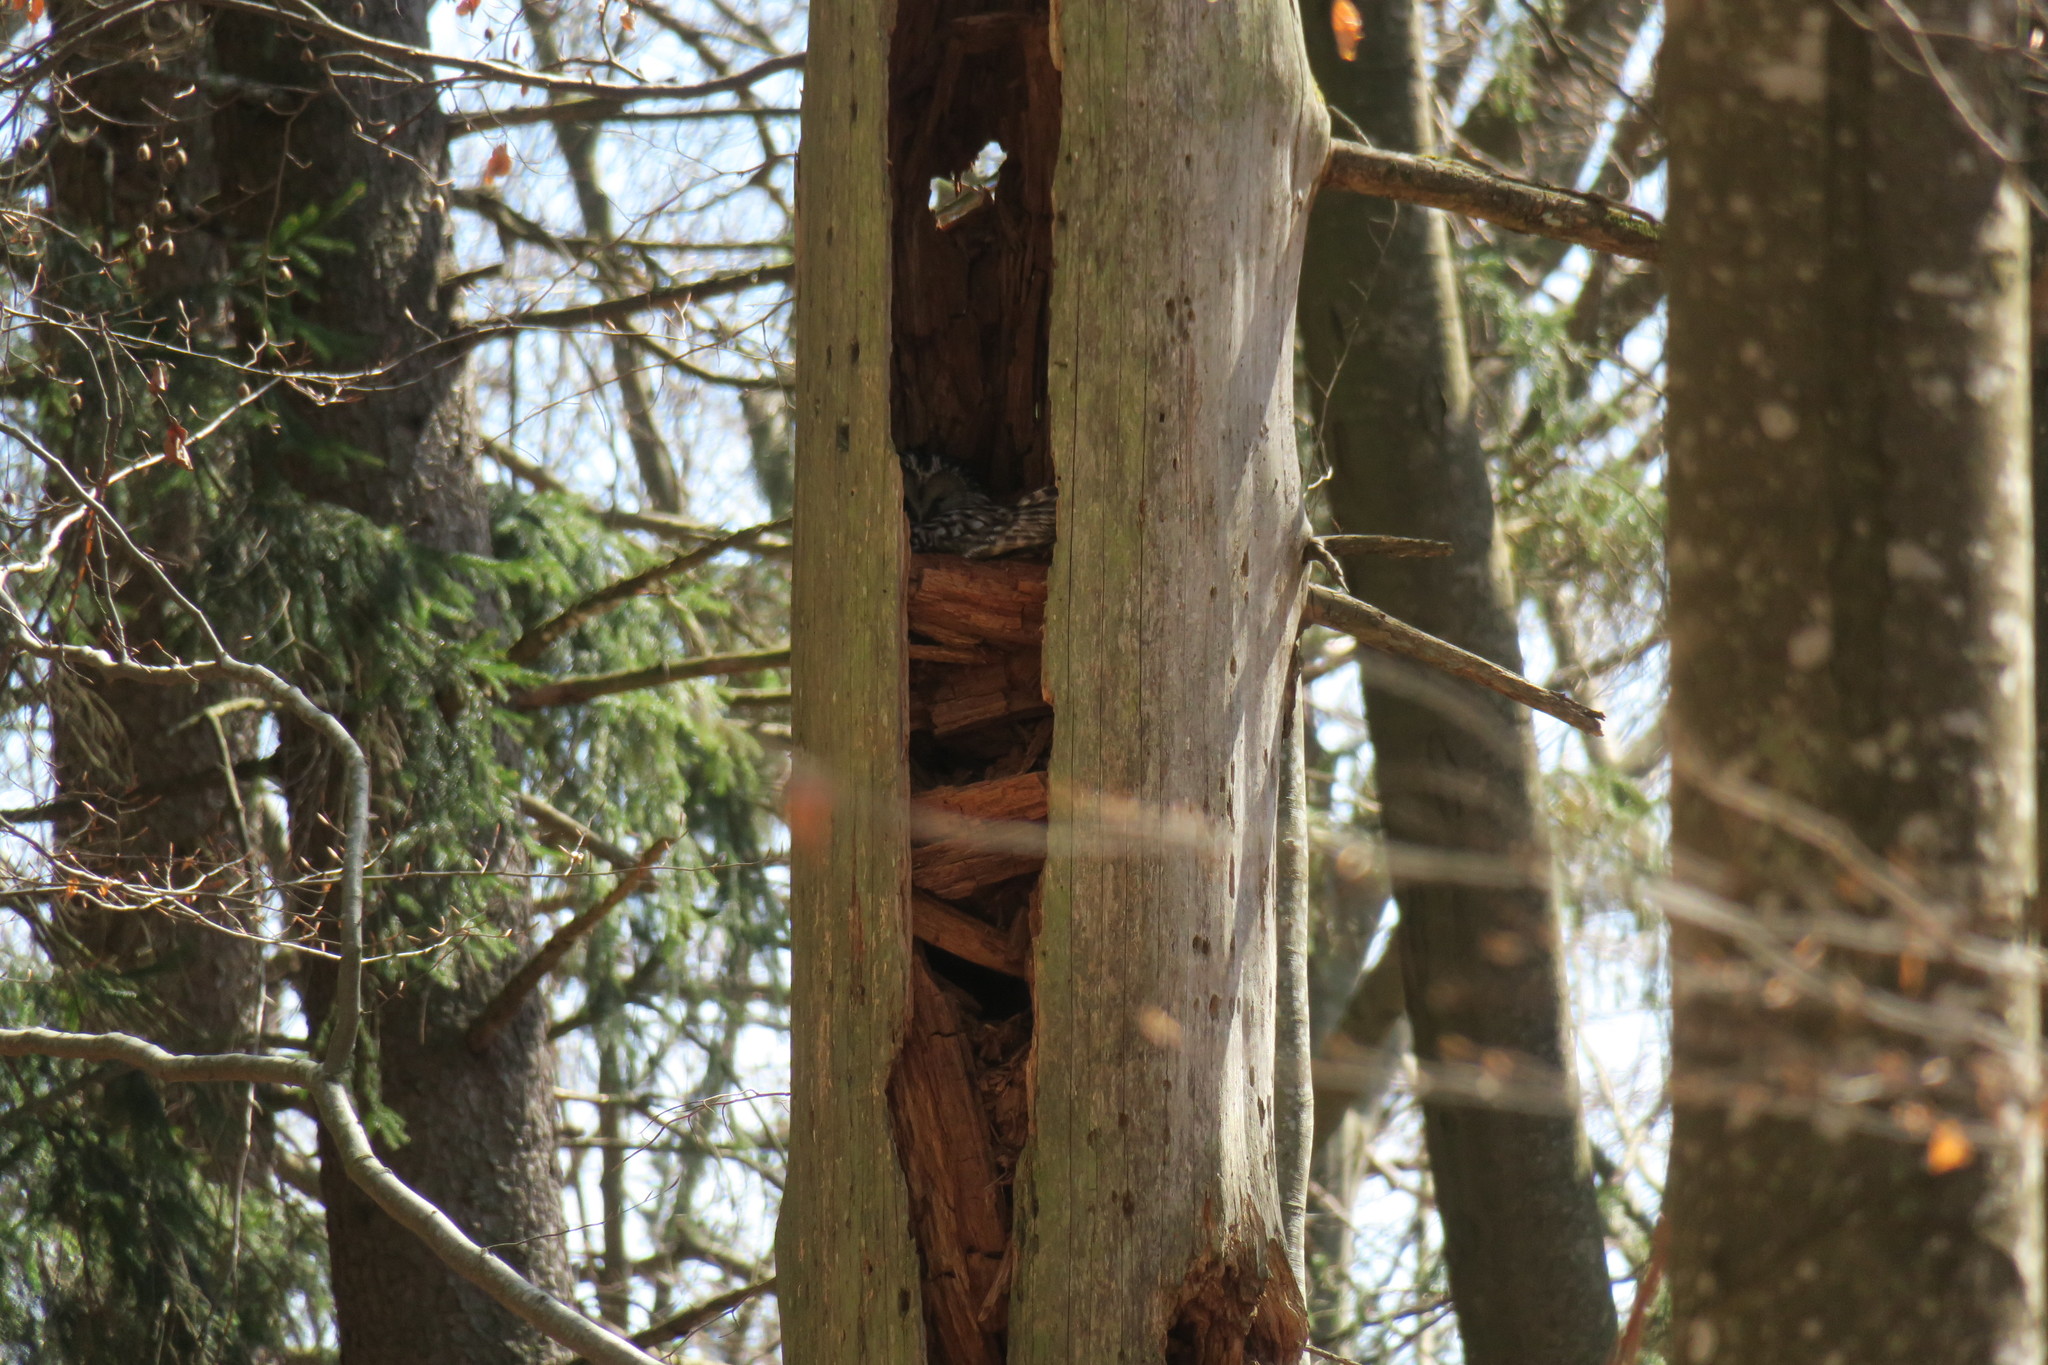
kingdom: Animalia
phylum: Chordata
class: Aves
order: Strigiformes
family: Strigidae
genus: Strix
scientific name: Strix uralensis
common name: Ural owl
